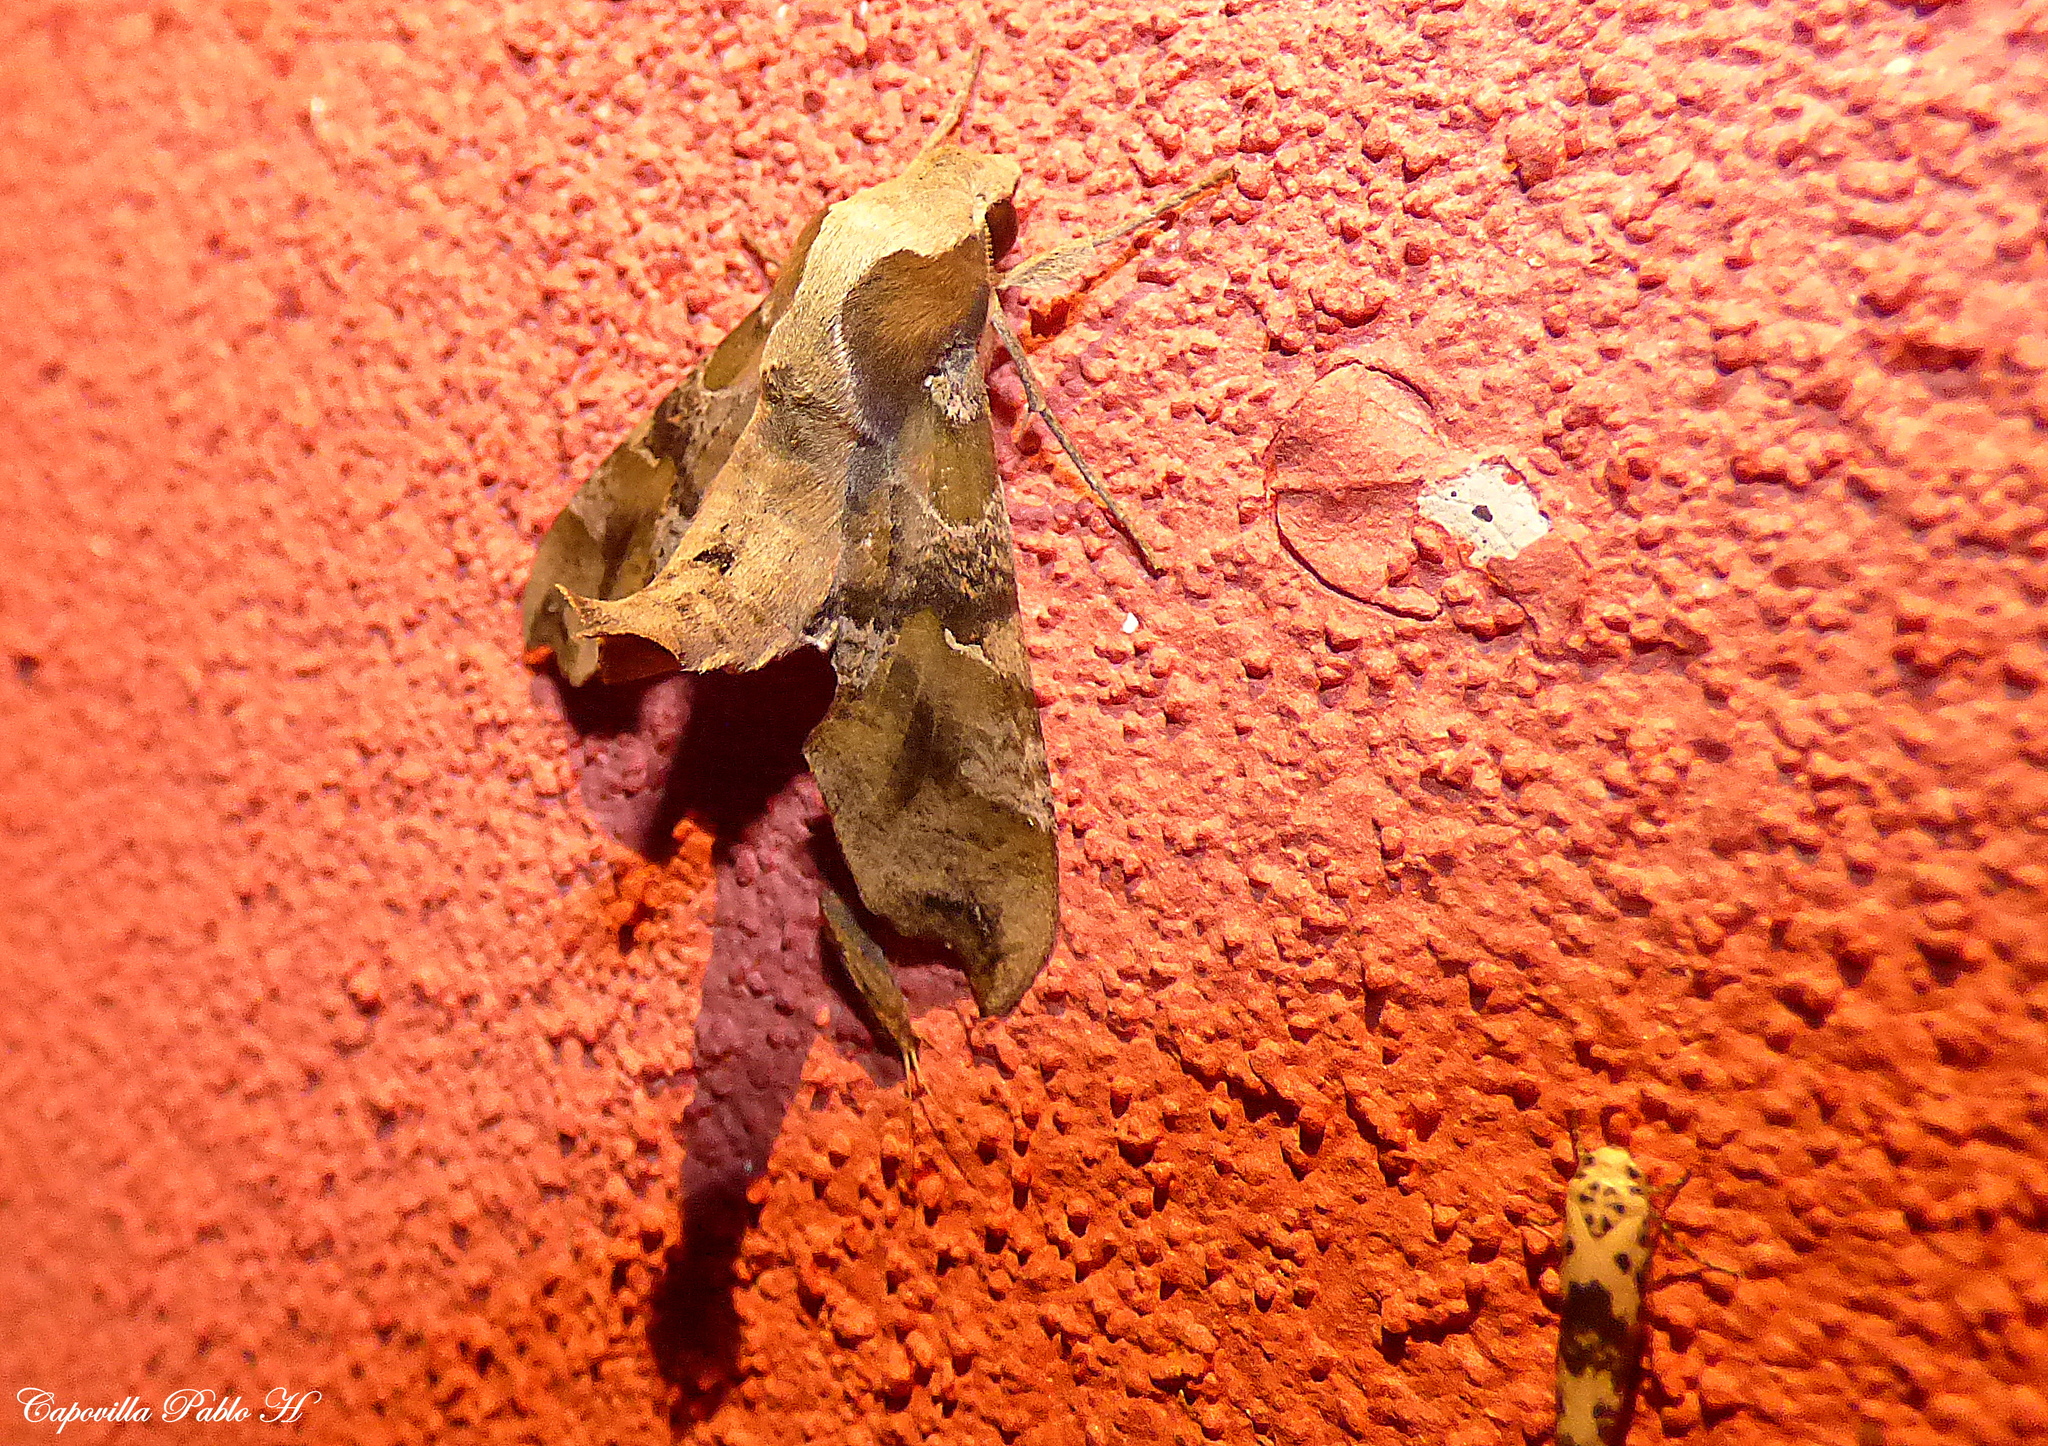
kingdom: Animalia
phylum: Arthropoda
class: Insecta
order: Lepidoptera
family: Sphingidae
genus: Callionima
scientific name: Callionima grisescens
